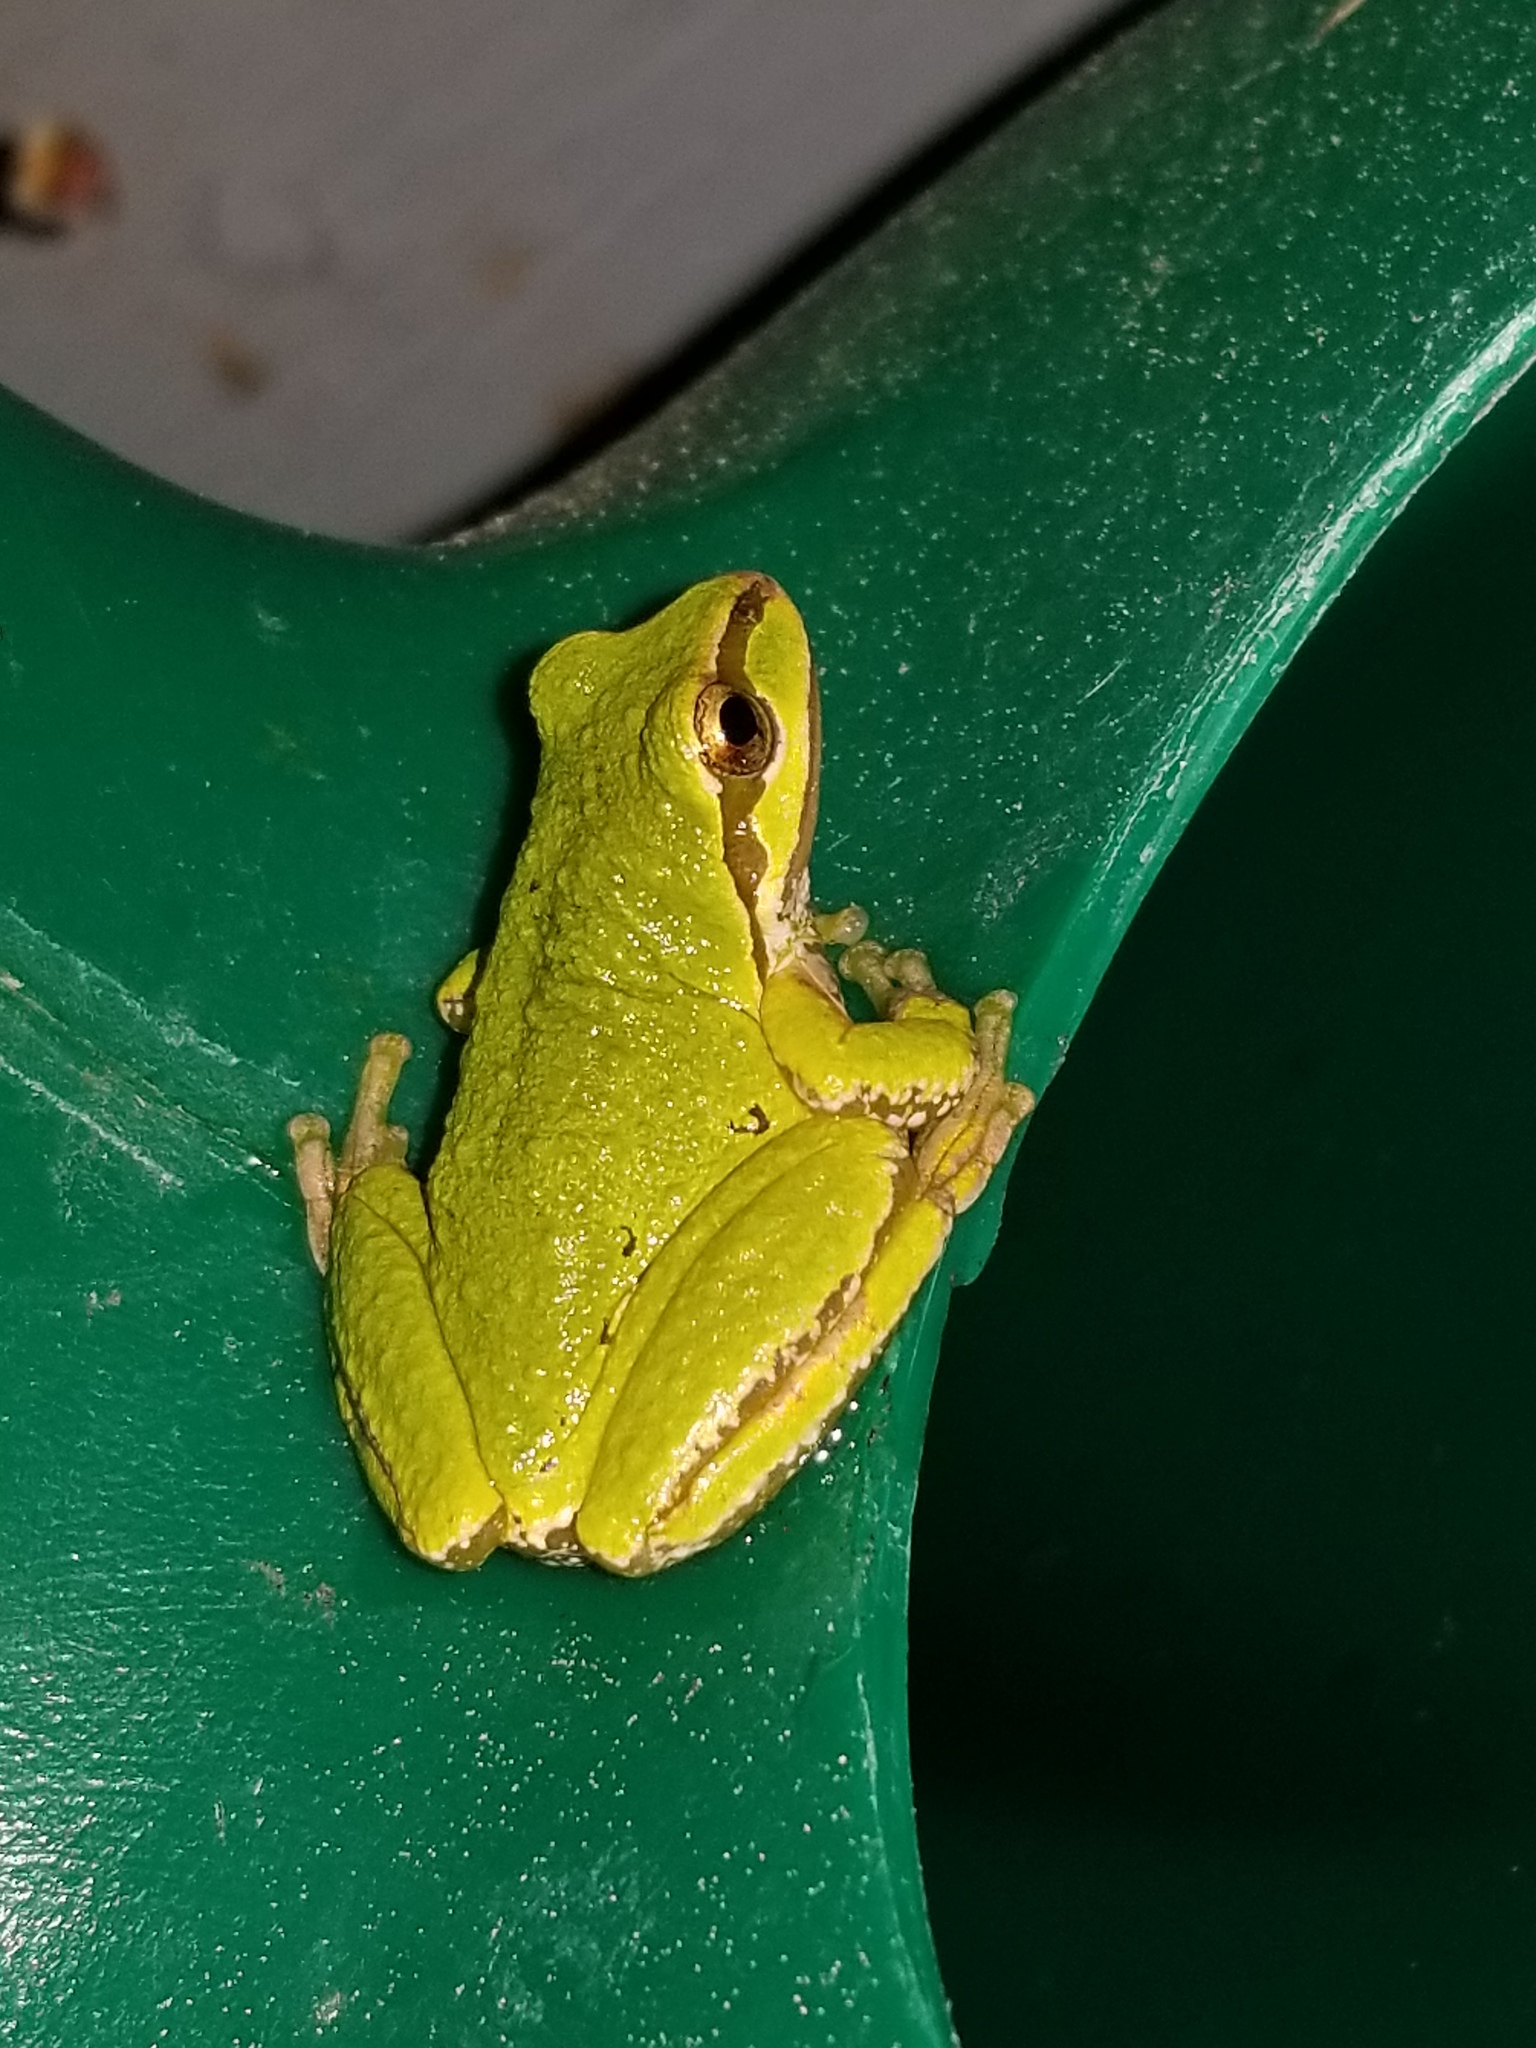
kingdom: Animalia
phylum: Chordata
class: Amphibia
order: Anura
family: Hylidae
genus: Pseudacris
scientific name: Pseudacris regilla
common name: Pacific chorus frog
